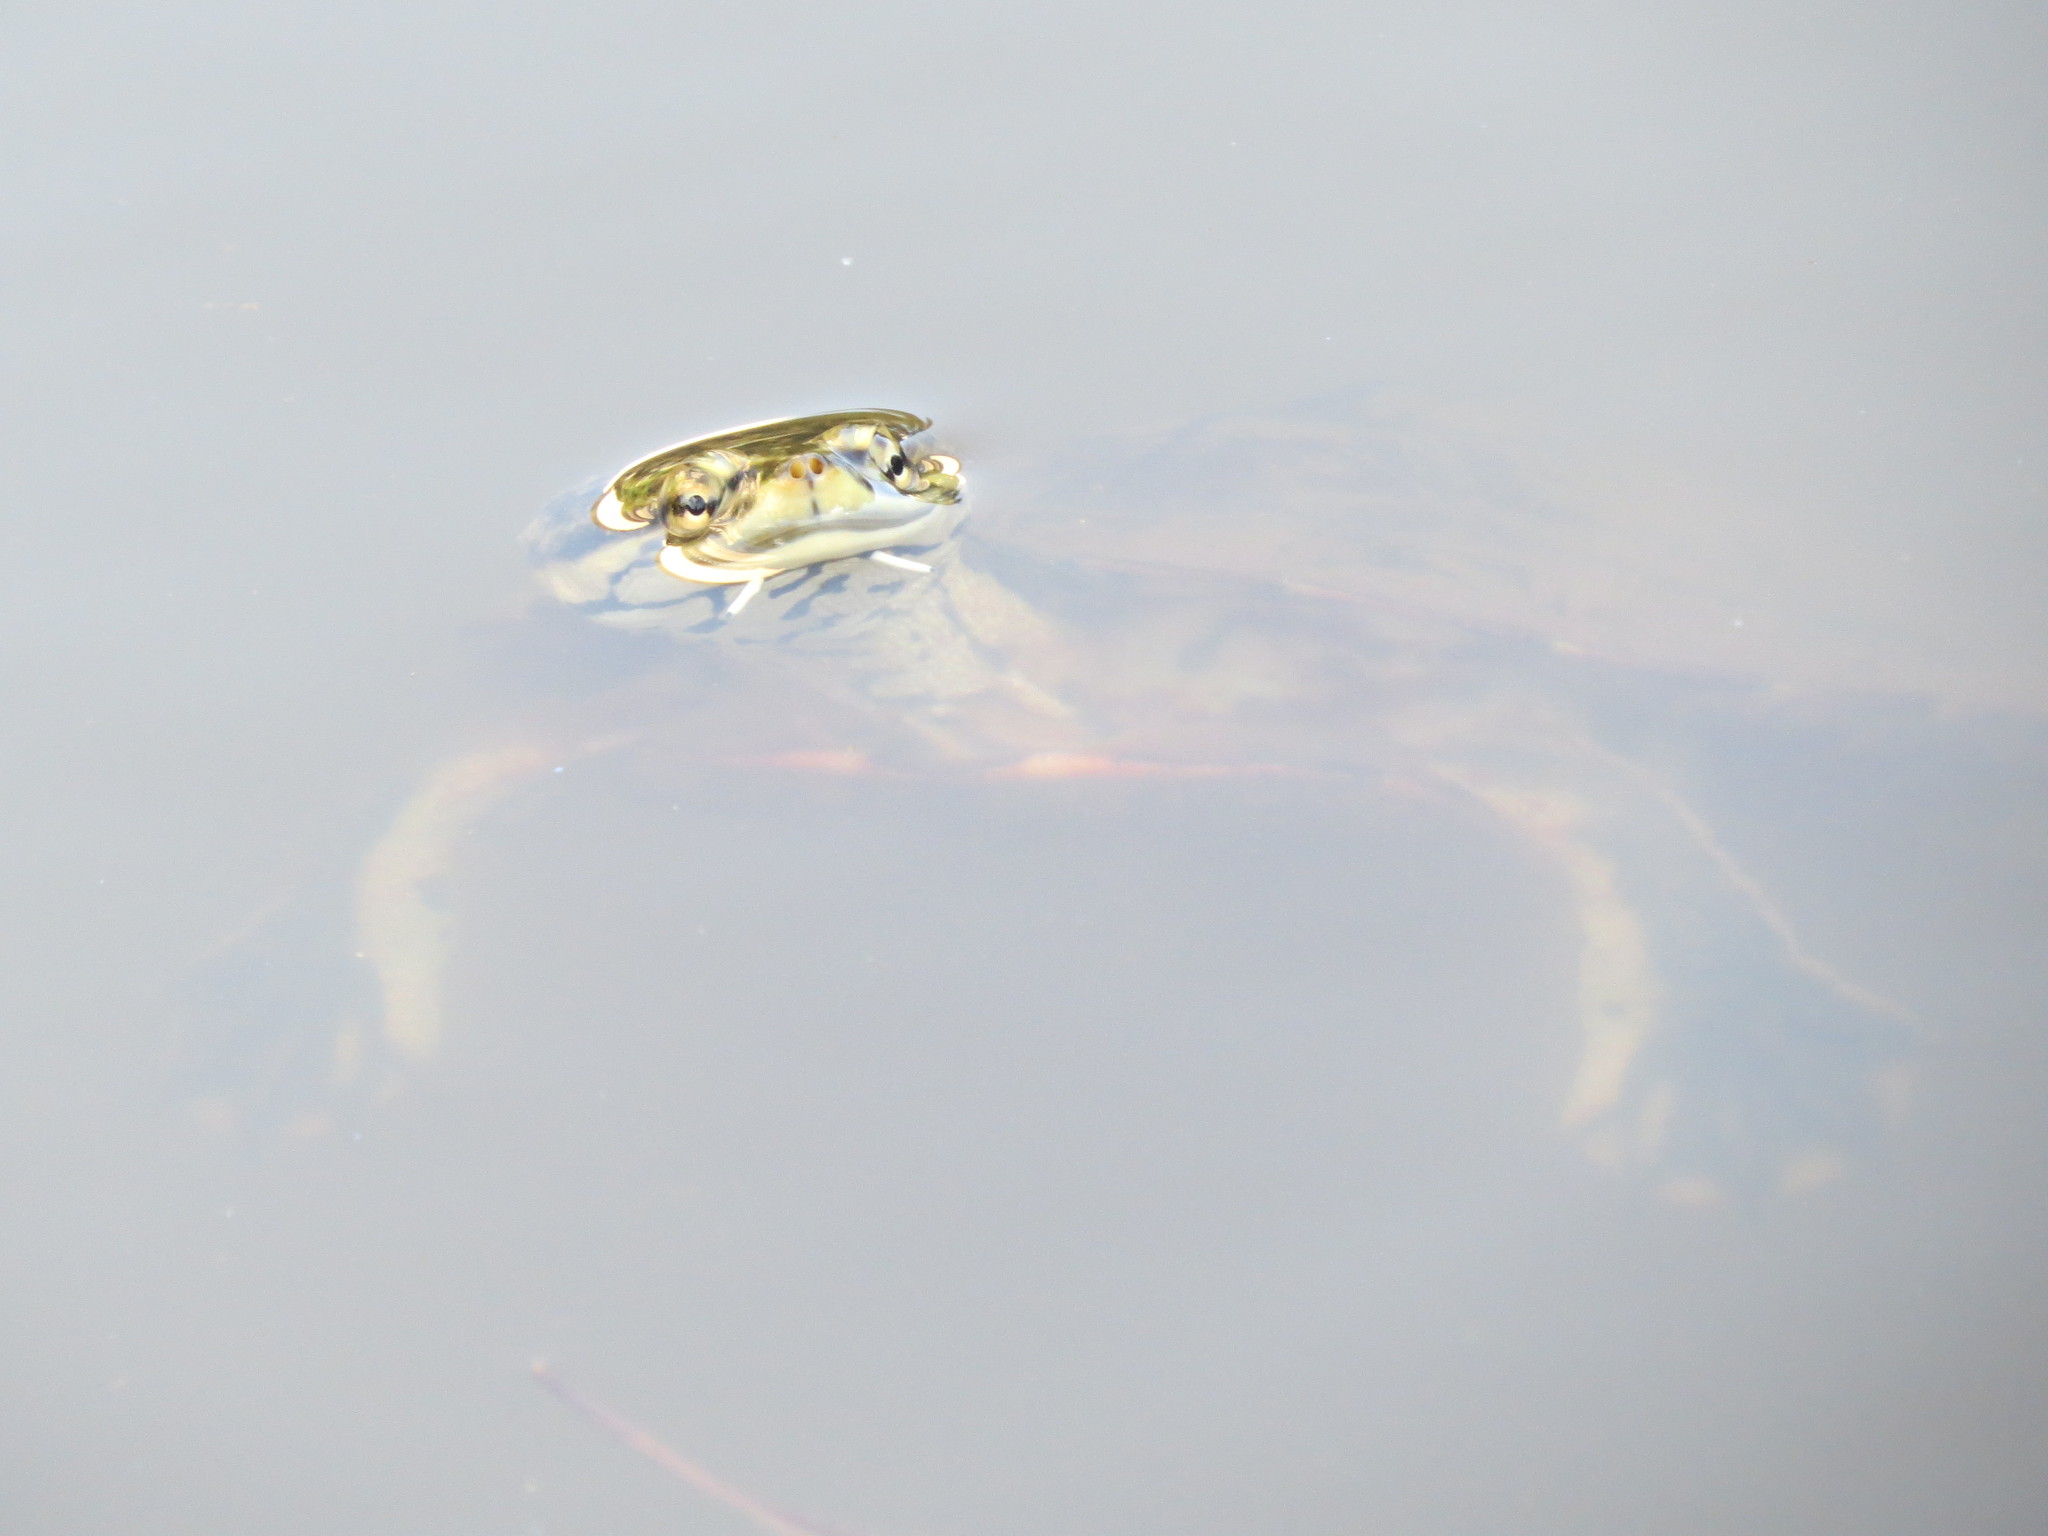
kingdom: Animalia
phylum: Chordata
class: Testudines
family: Chelidae
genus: Phrynops
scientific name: Phrynops geoffroanus
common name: Side-necked turtle of geoffroy
